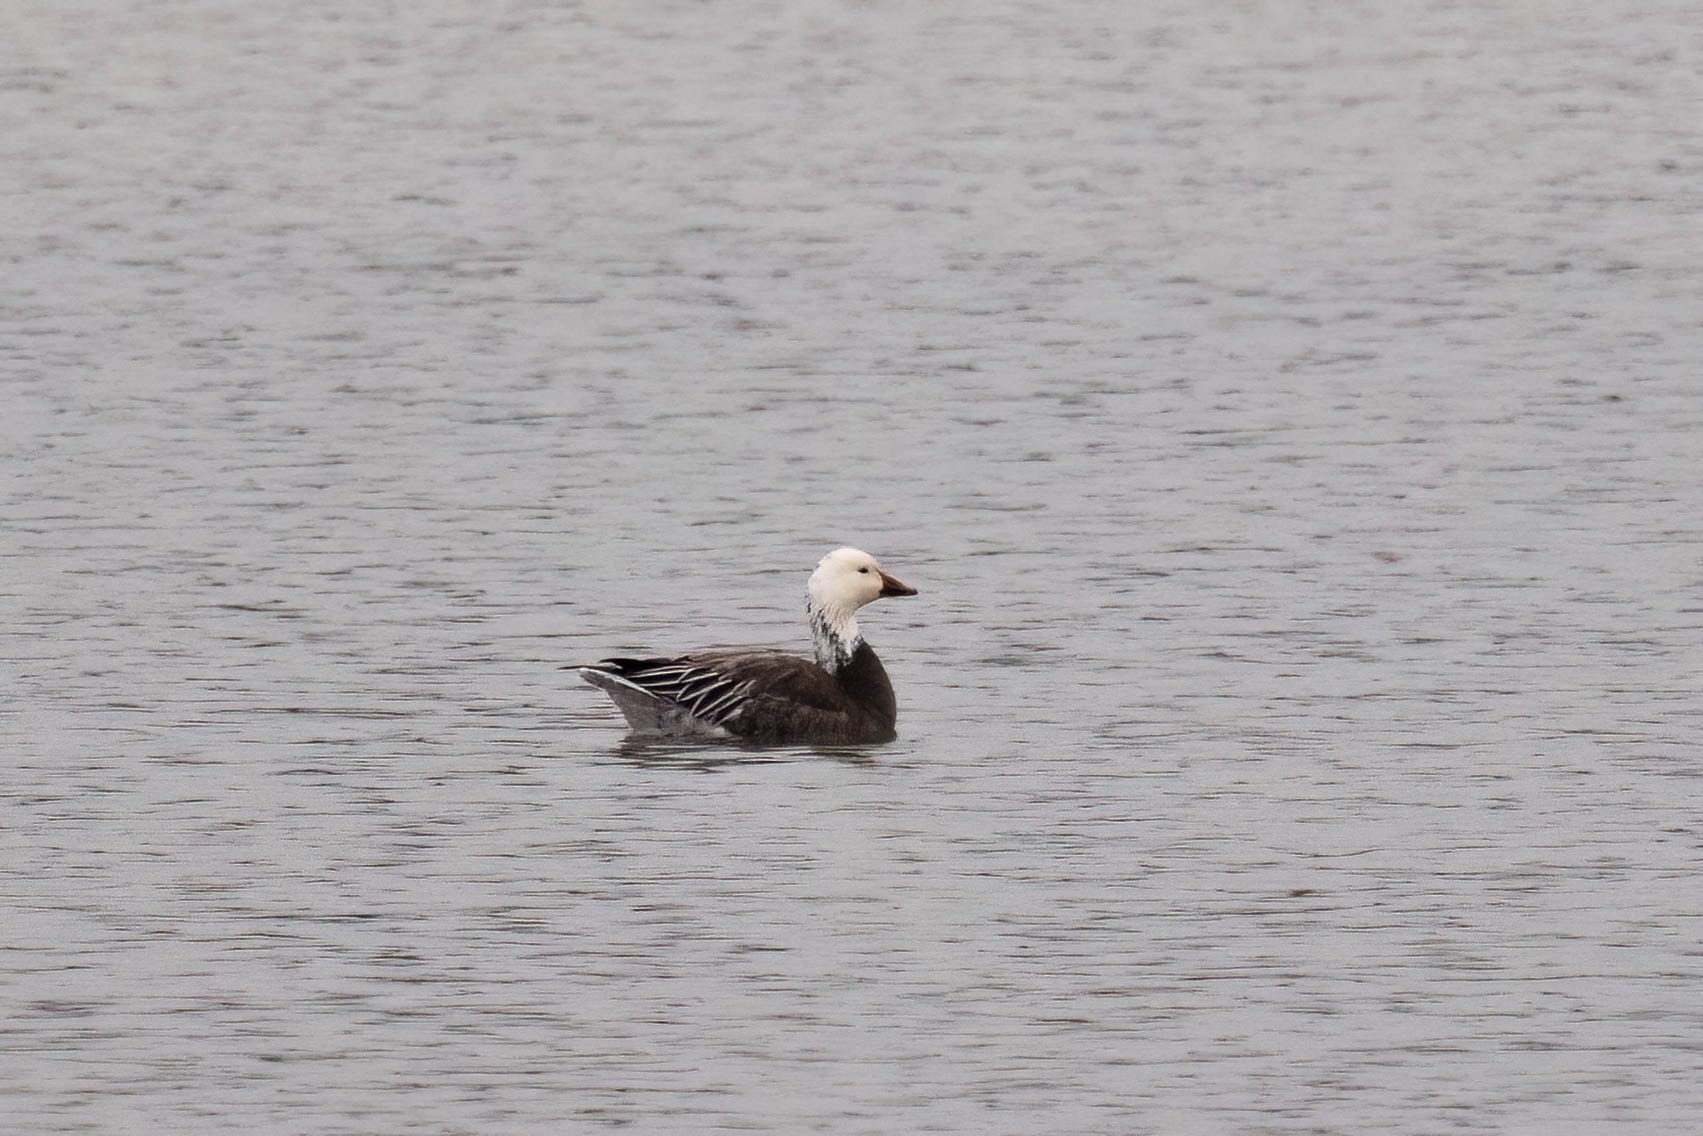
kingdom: Animalia
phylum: Chordata
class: Aves
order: Anseriformes
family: Anatidae
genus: Anser
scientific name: Anser caerulescens
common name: Snow goose
